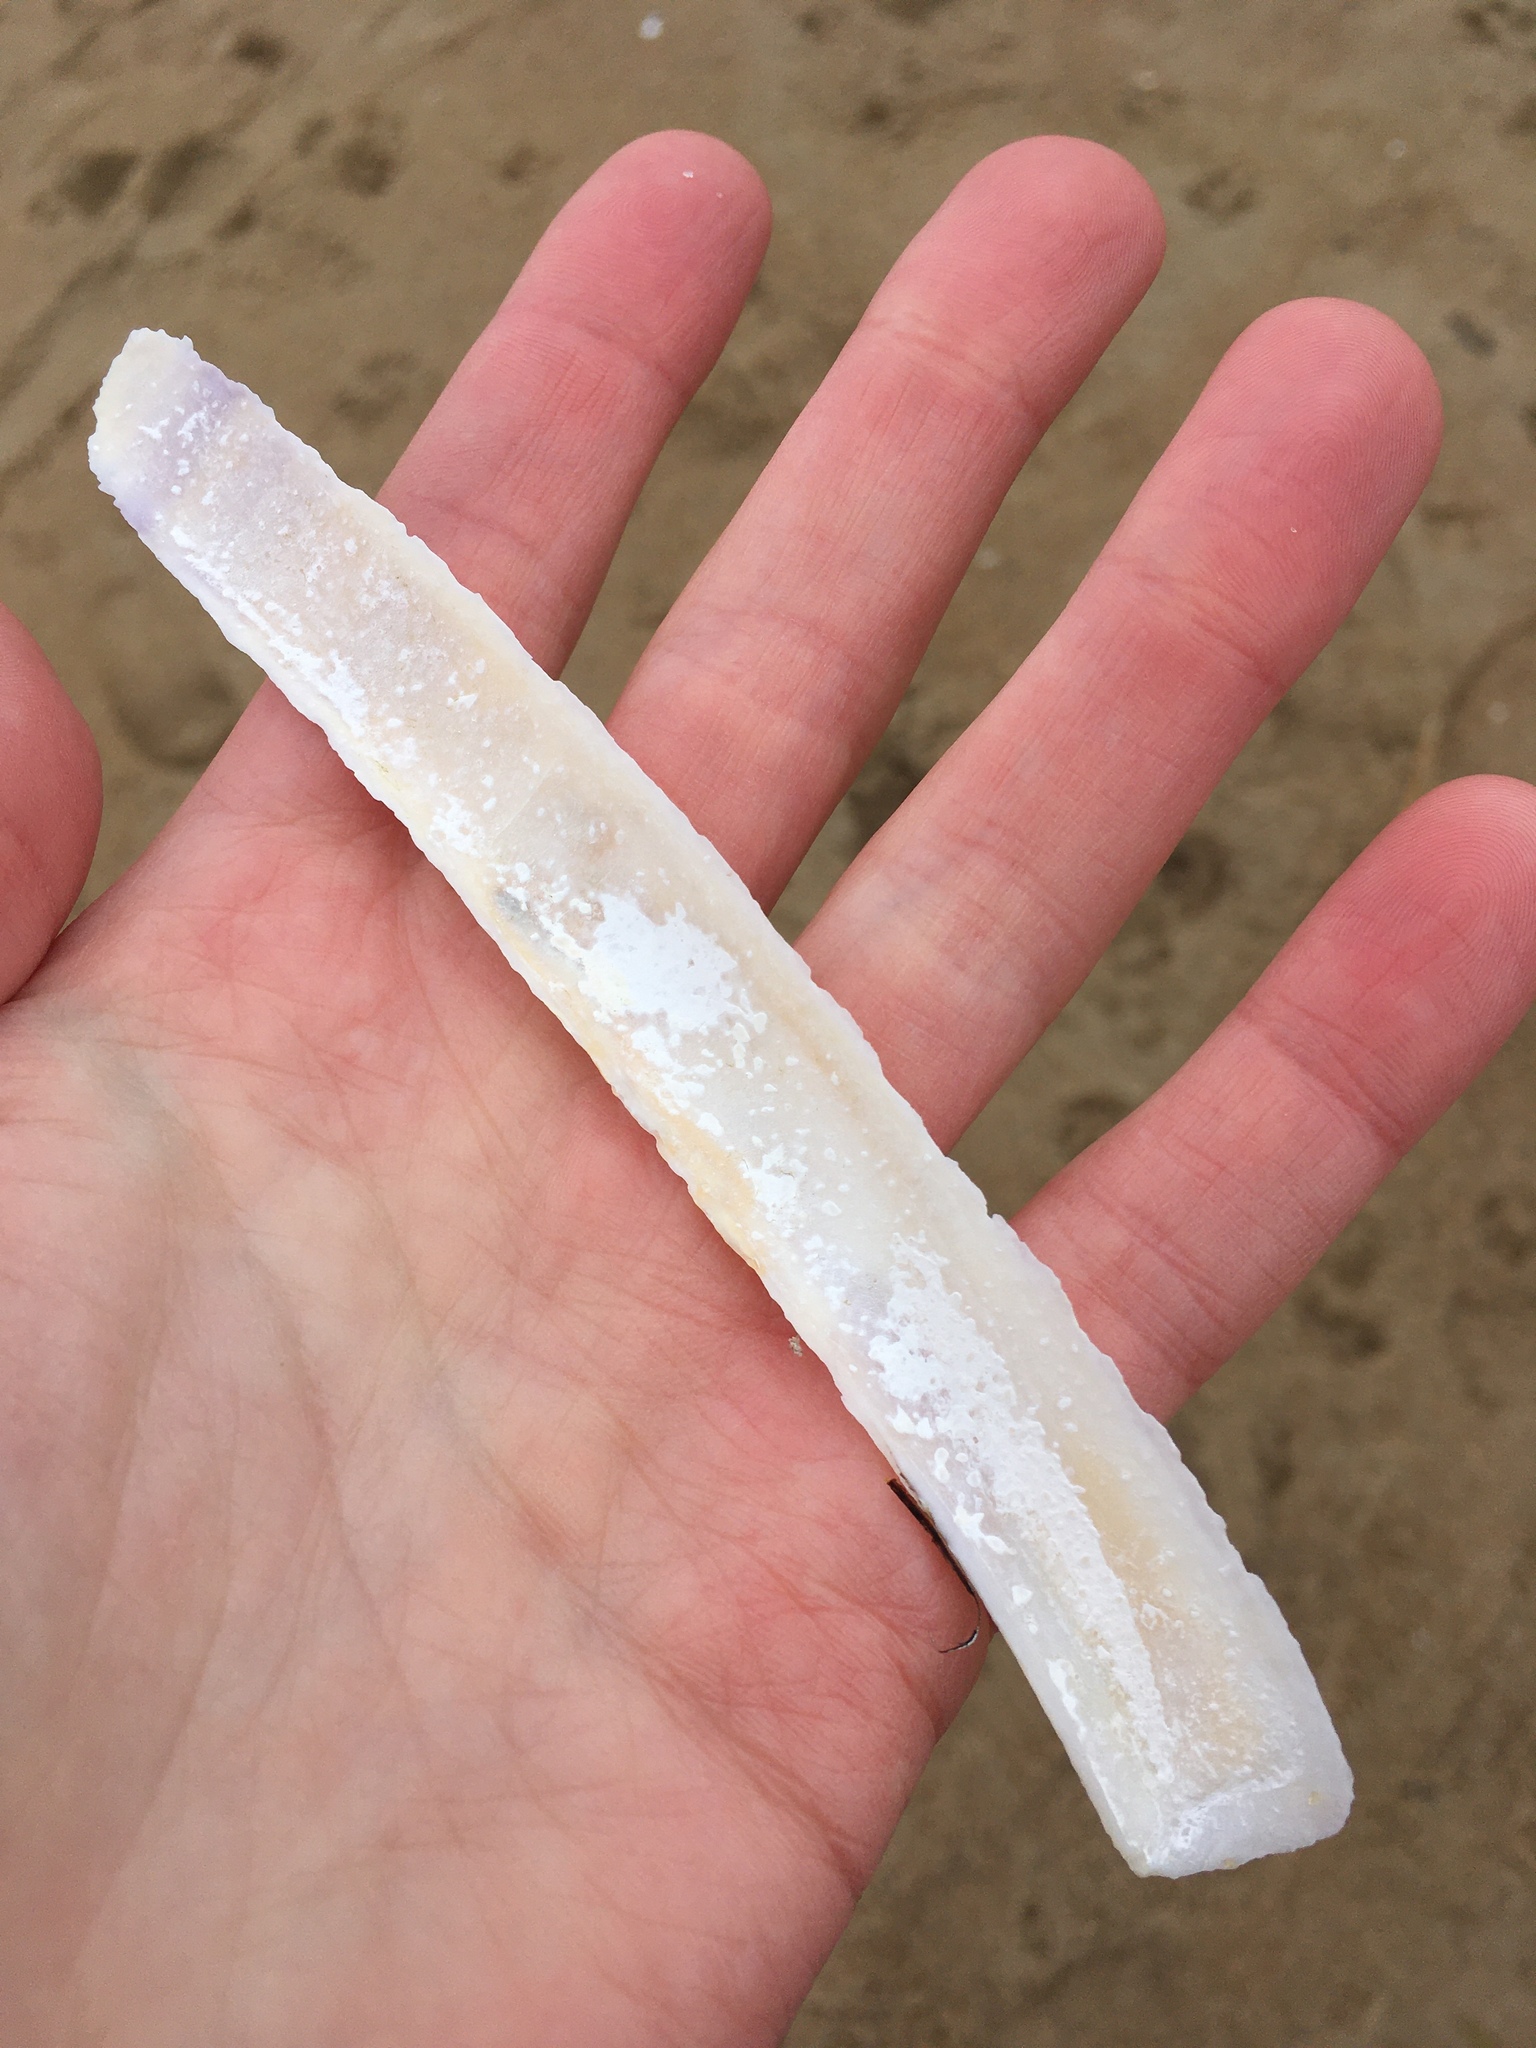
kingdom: Animalia
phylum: Mollusca
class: Bivalvia
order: Adapedonta
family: Pharidae
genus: Ensis
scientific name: Ensis leei
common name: American jack knife clam
